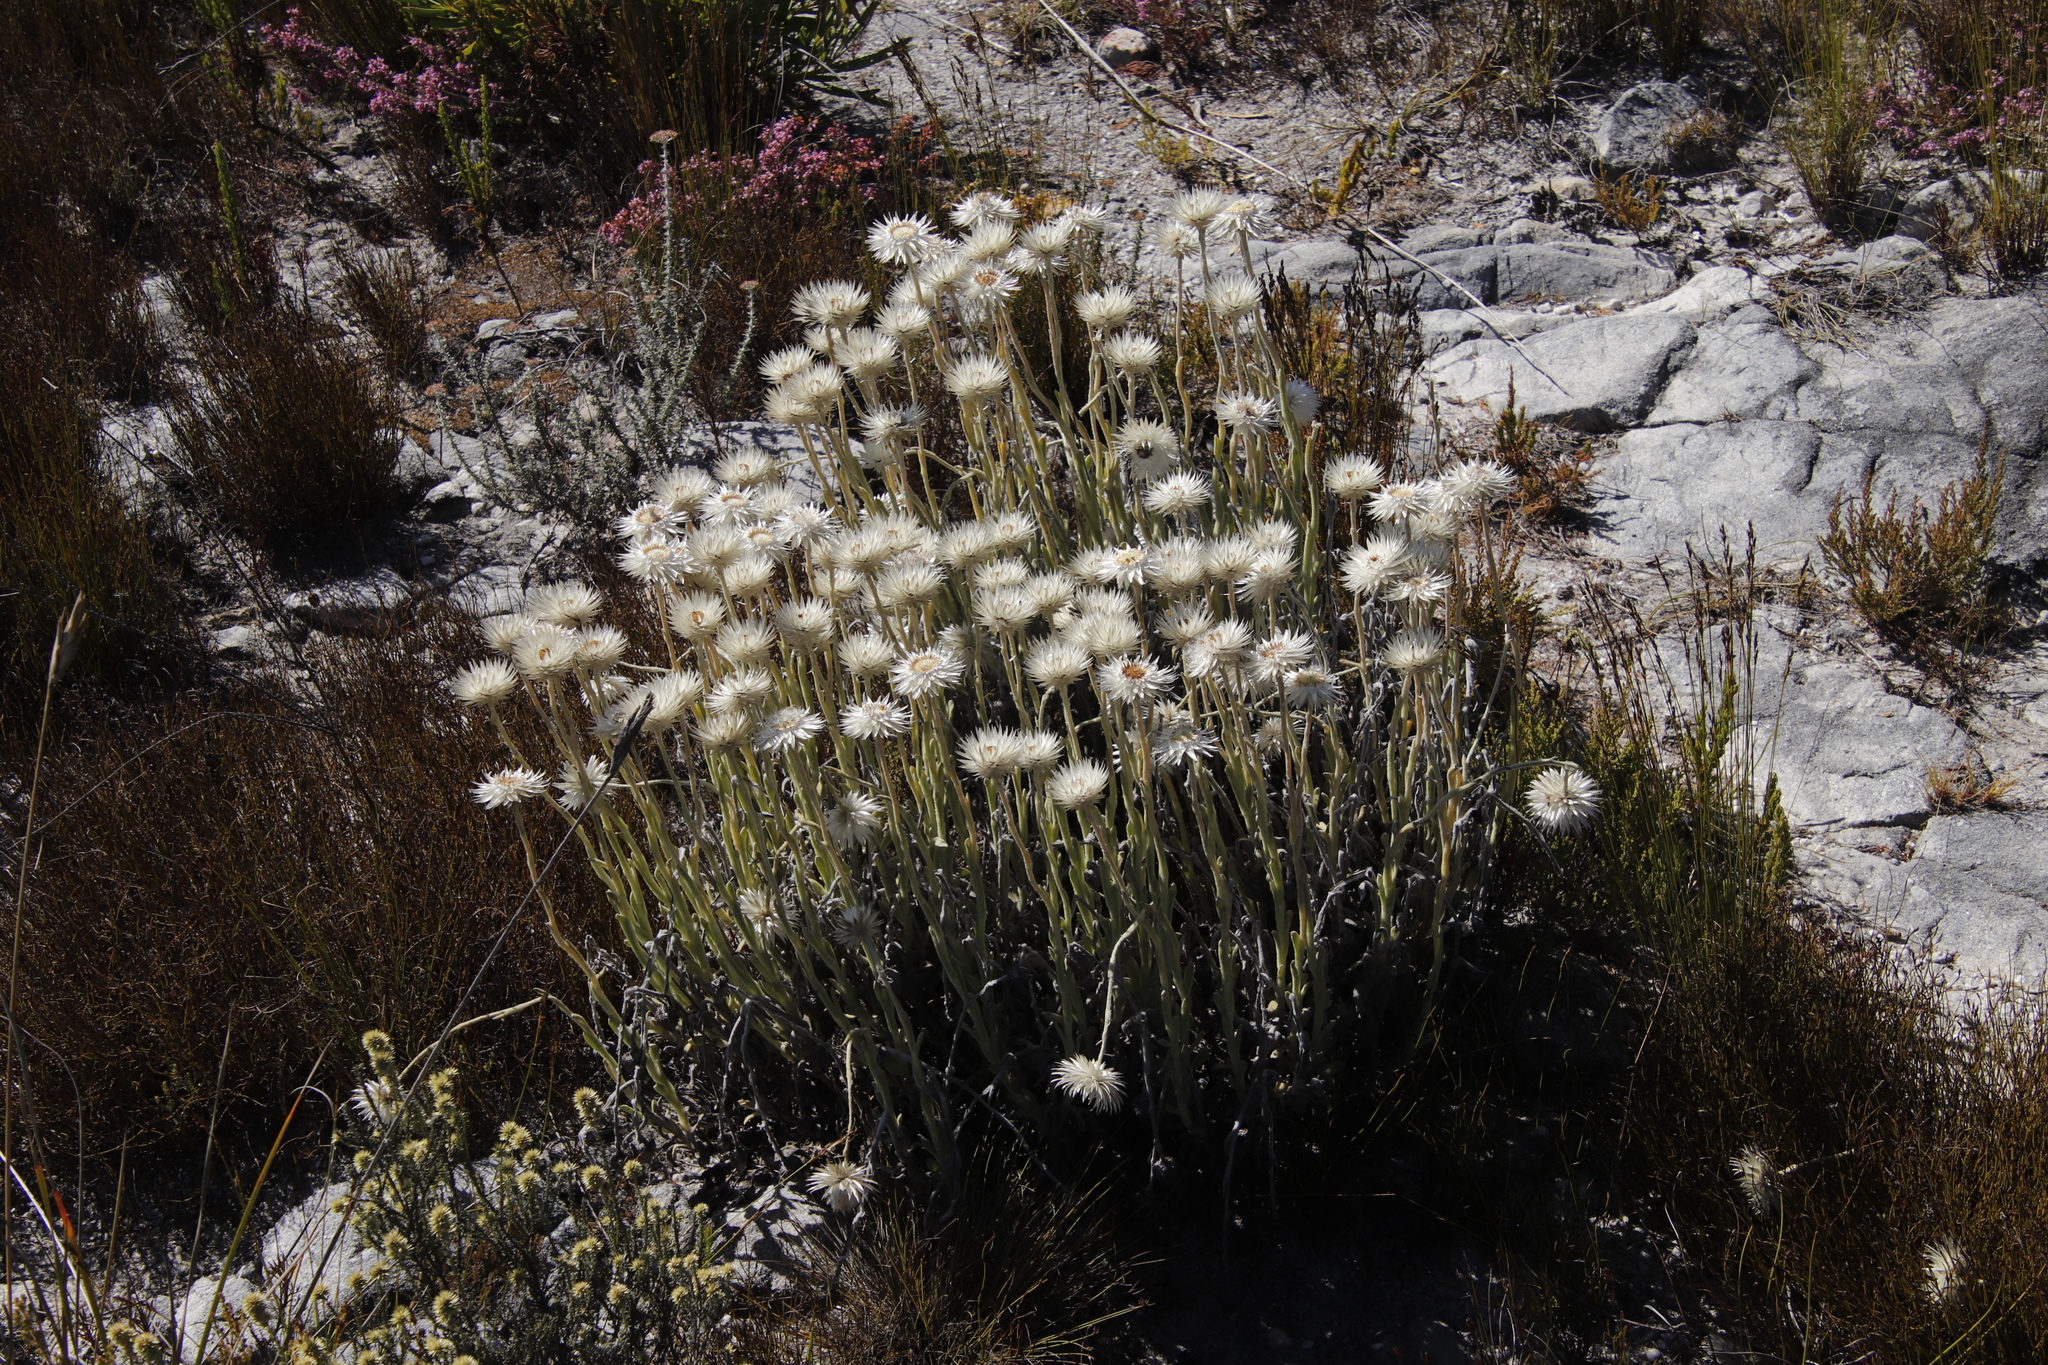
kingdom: Plantae
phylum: Tracheophyta
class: Magnoliopsida
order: Asterales
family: Asteraceae
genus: Syncarpha
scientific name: Syncarpha vestita
